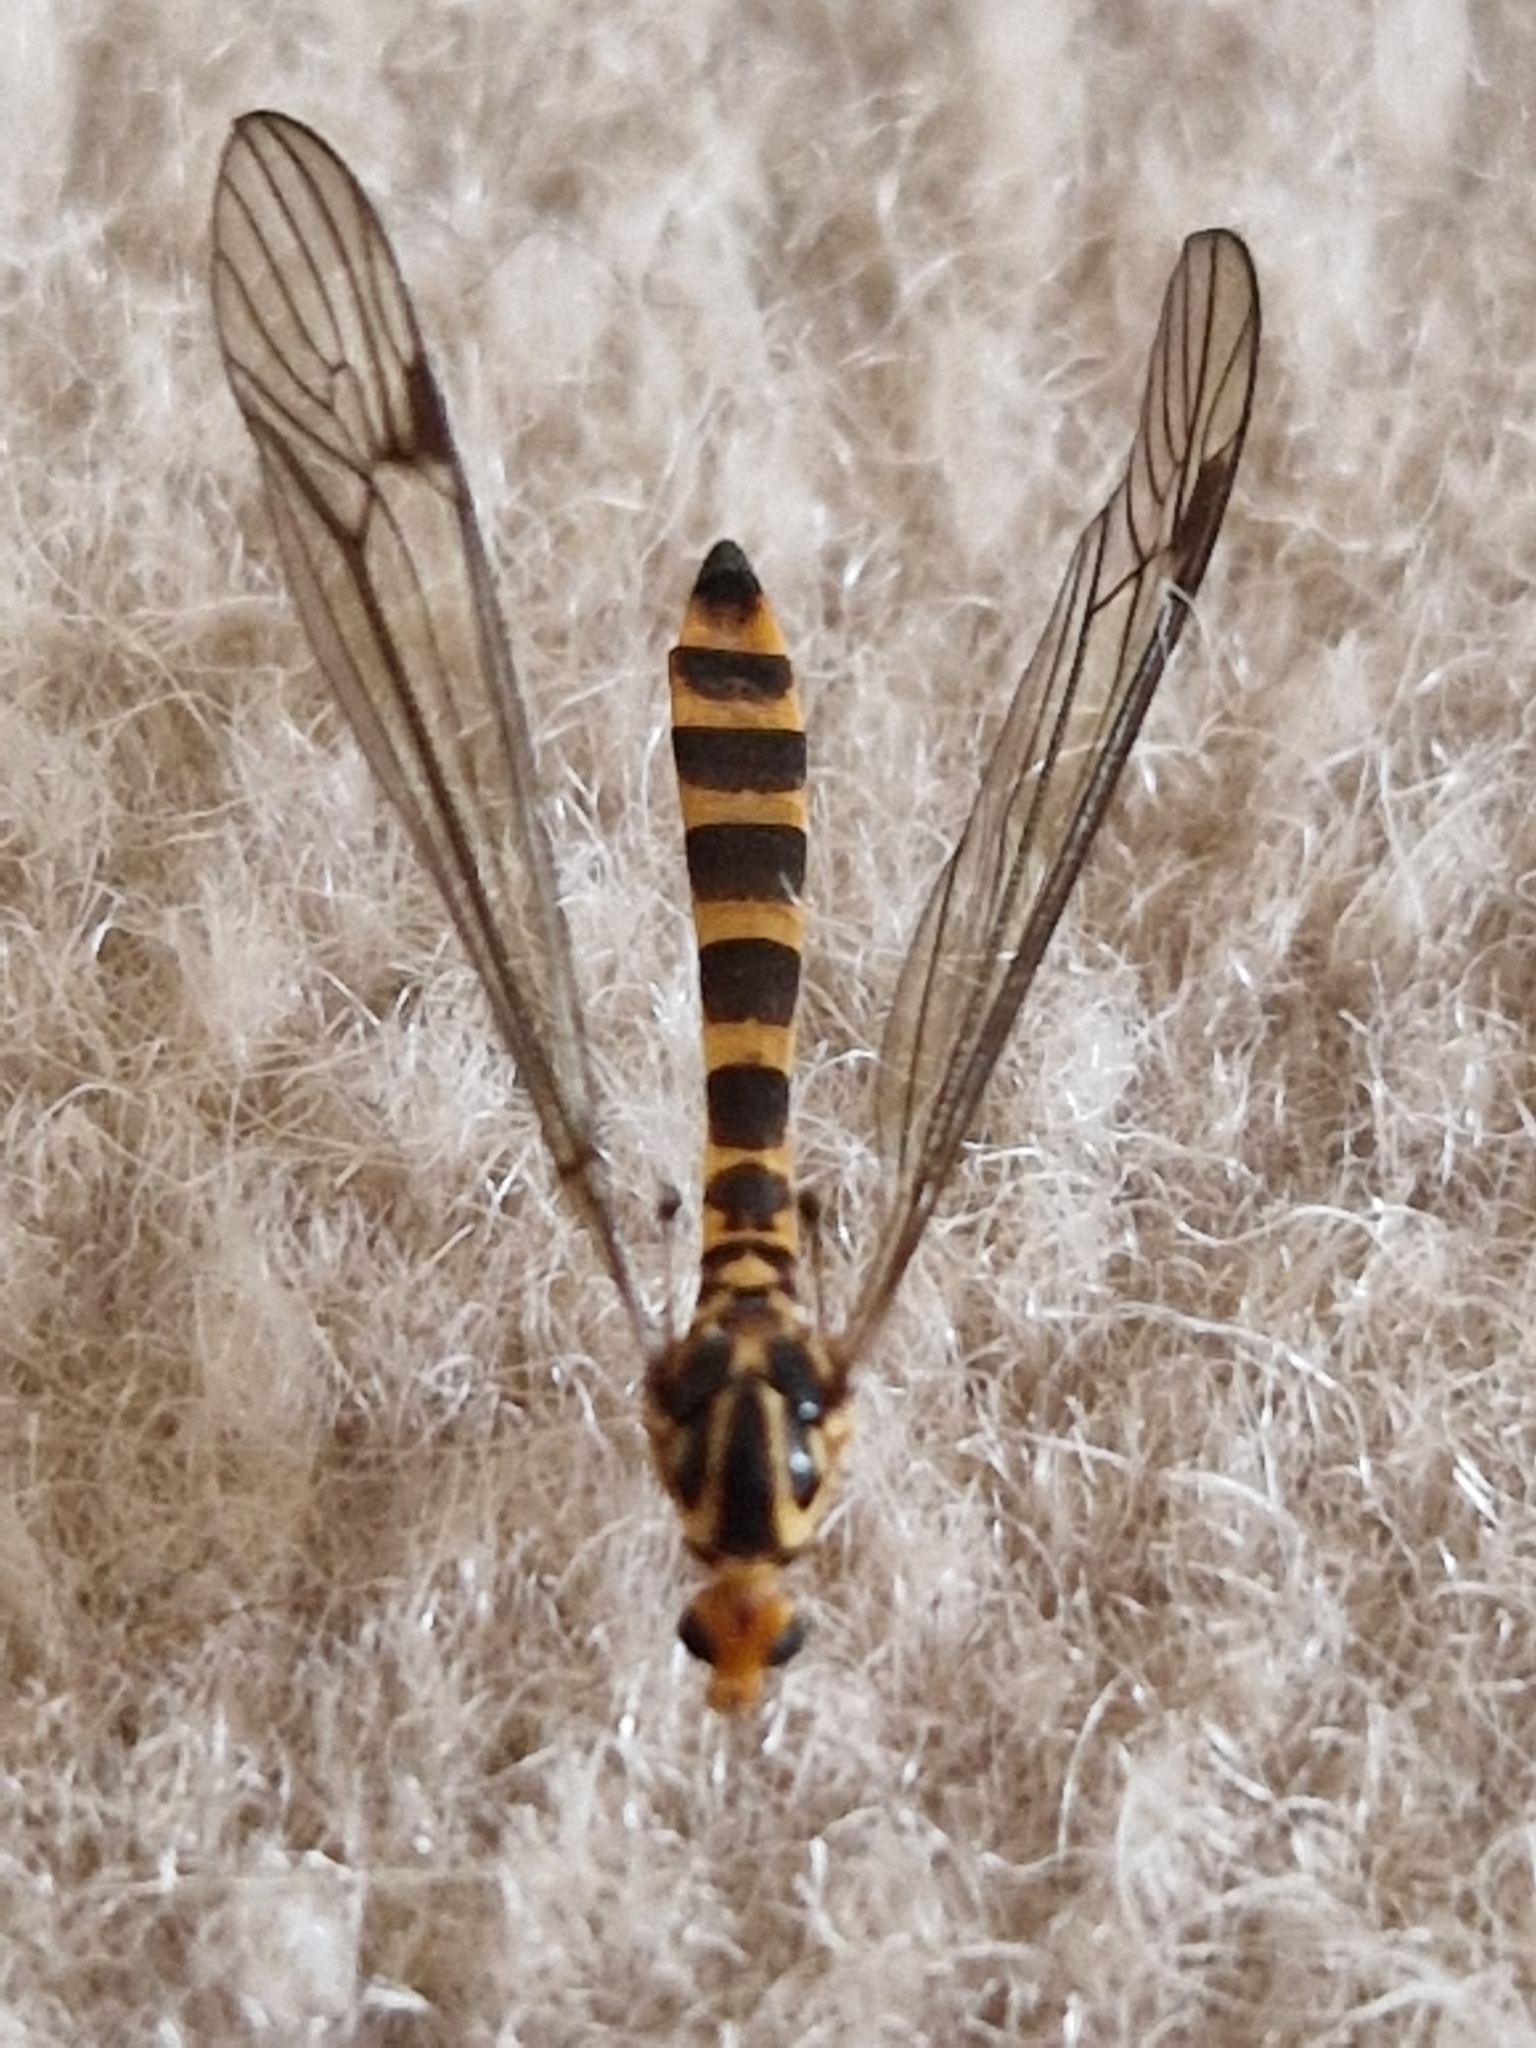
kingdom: Animalia
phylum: Arthropoda
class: Insecta
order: Diptera
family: Tipulidae
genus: Nephrotoma
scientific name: Nephrotoma flavipalpis
